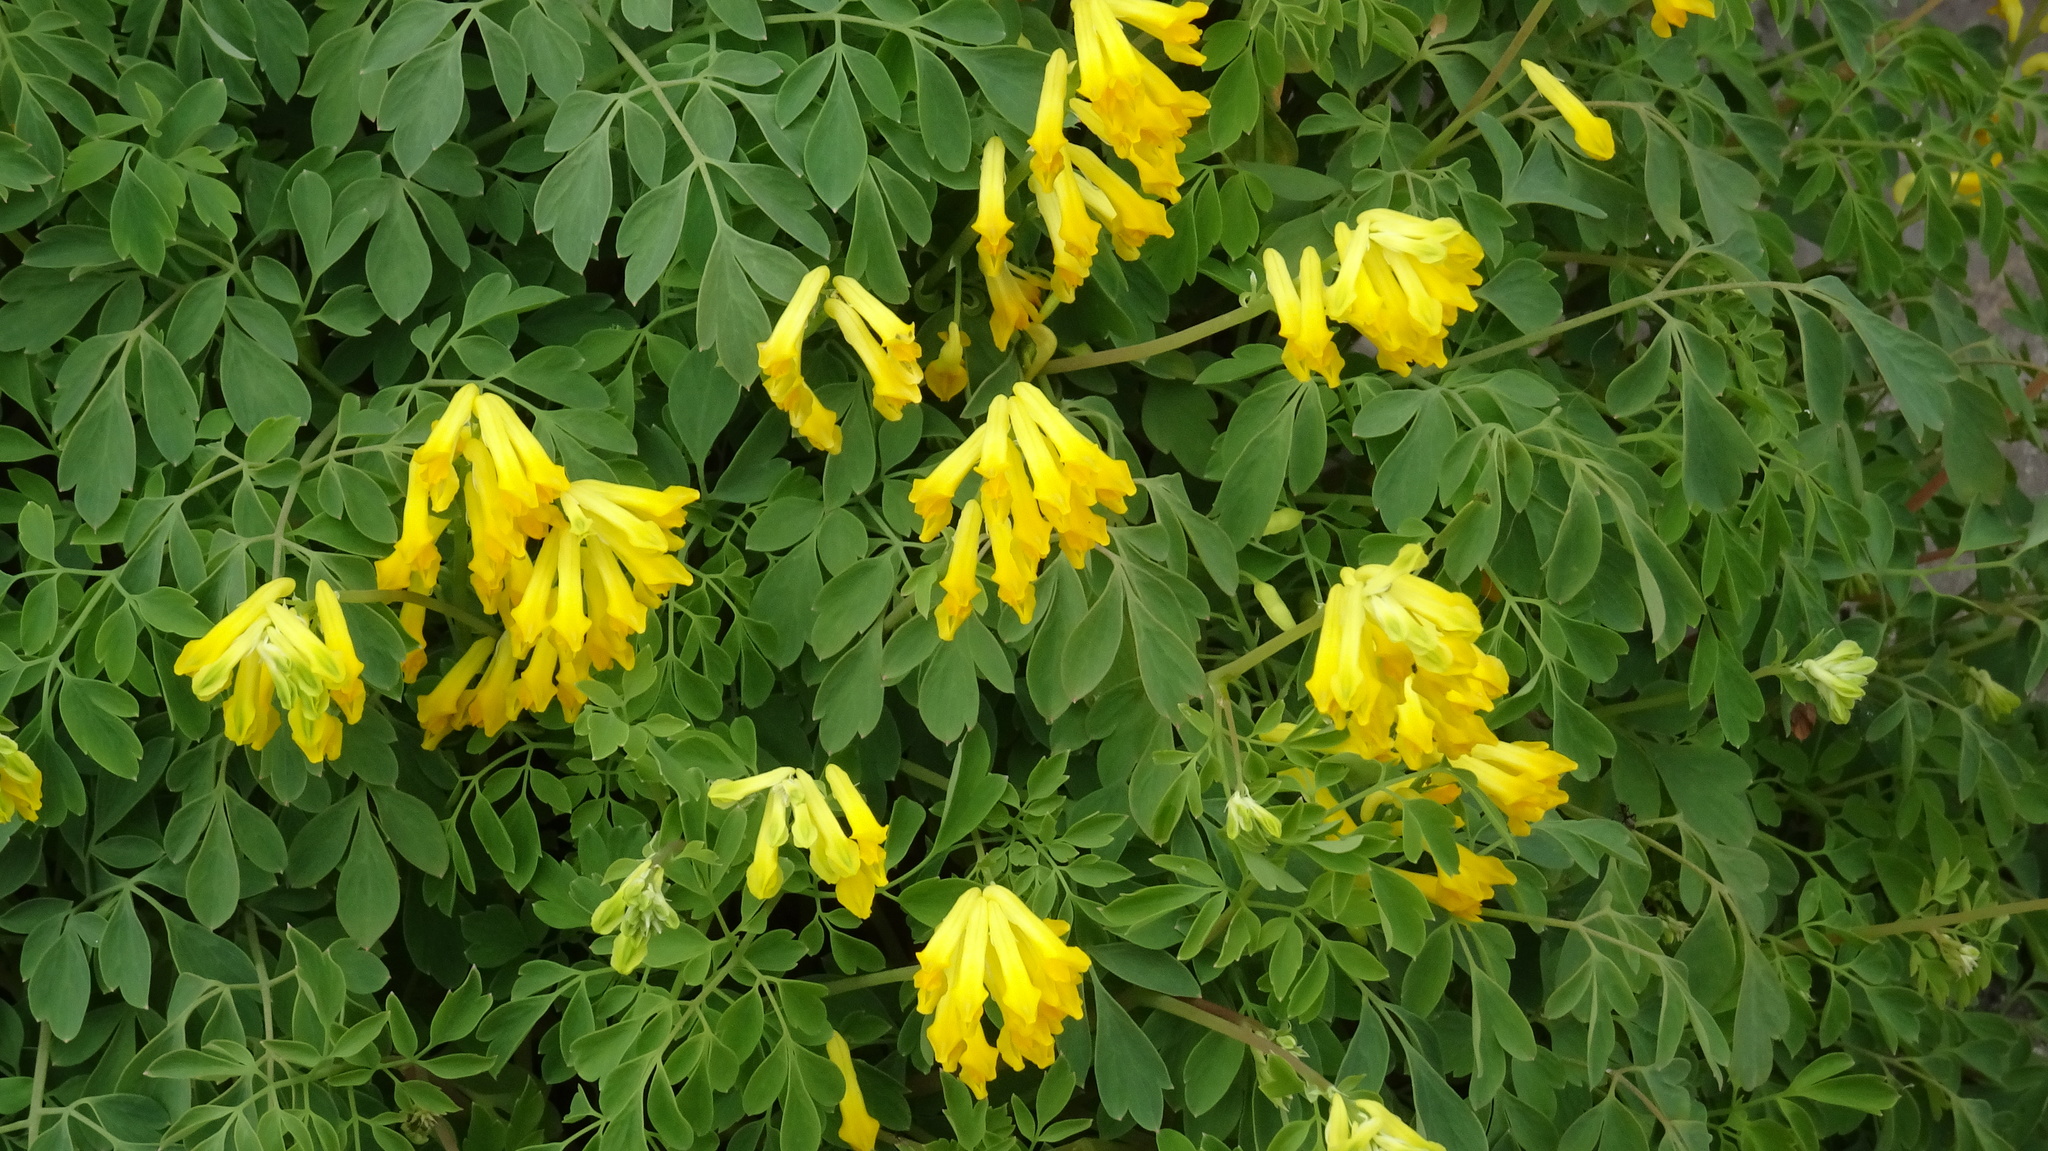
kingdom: Plantae
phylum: Tracheophyta
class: Magnoliopsida
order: Ranunculales
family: Papaveraceae
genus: Pseudofumaria
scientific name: Pseudofumaria lutea
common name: Yellow corydalis
